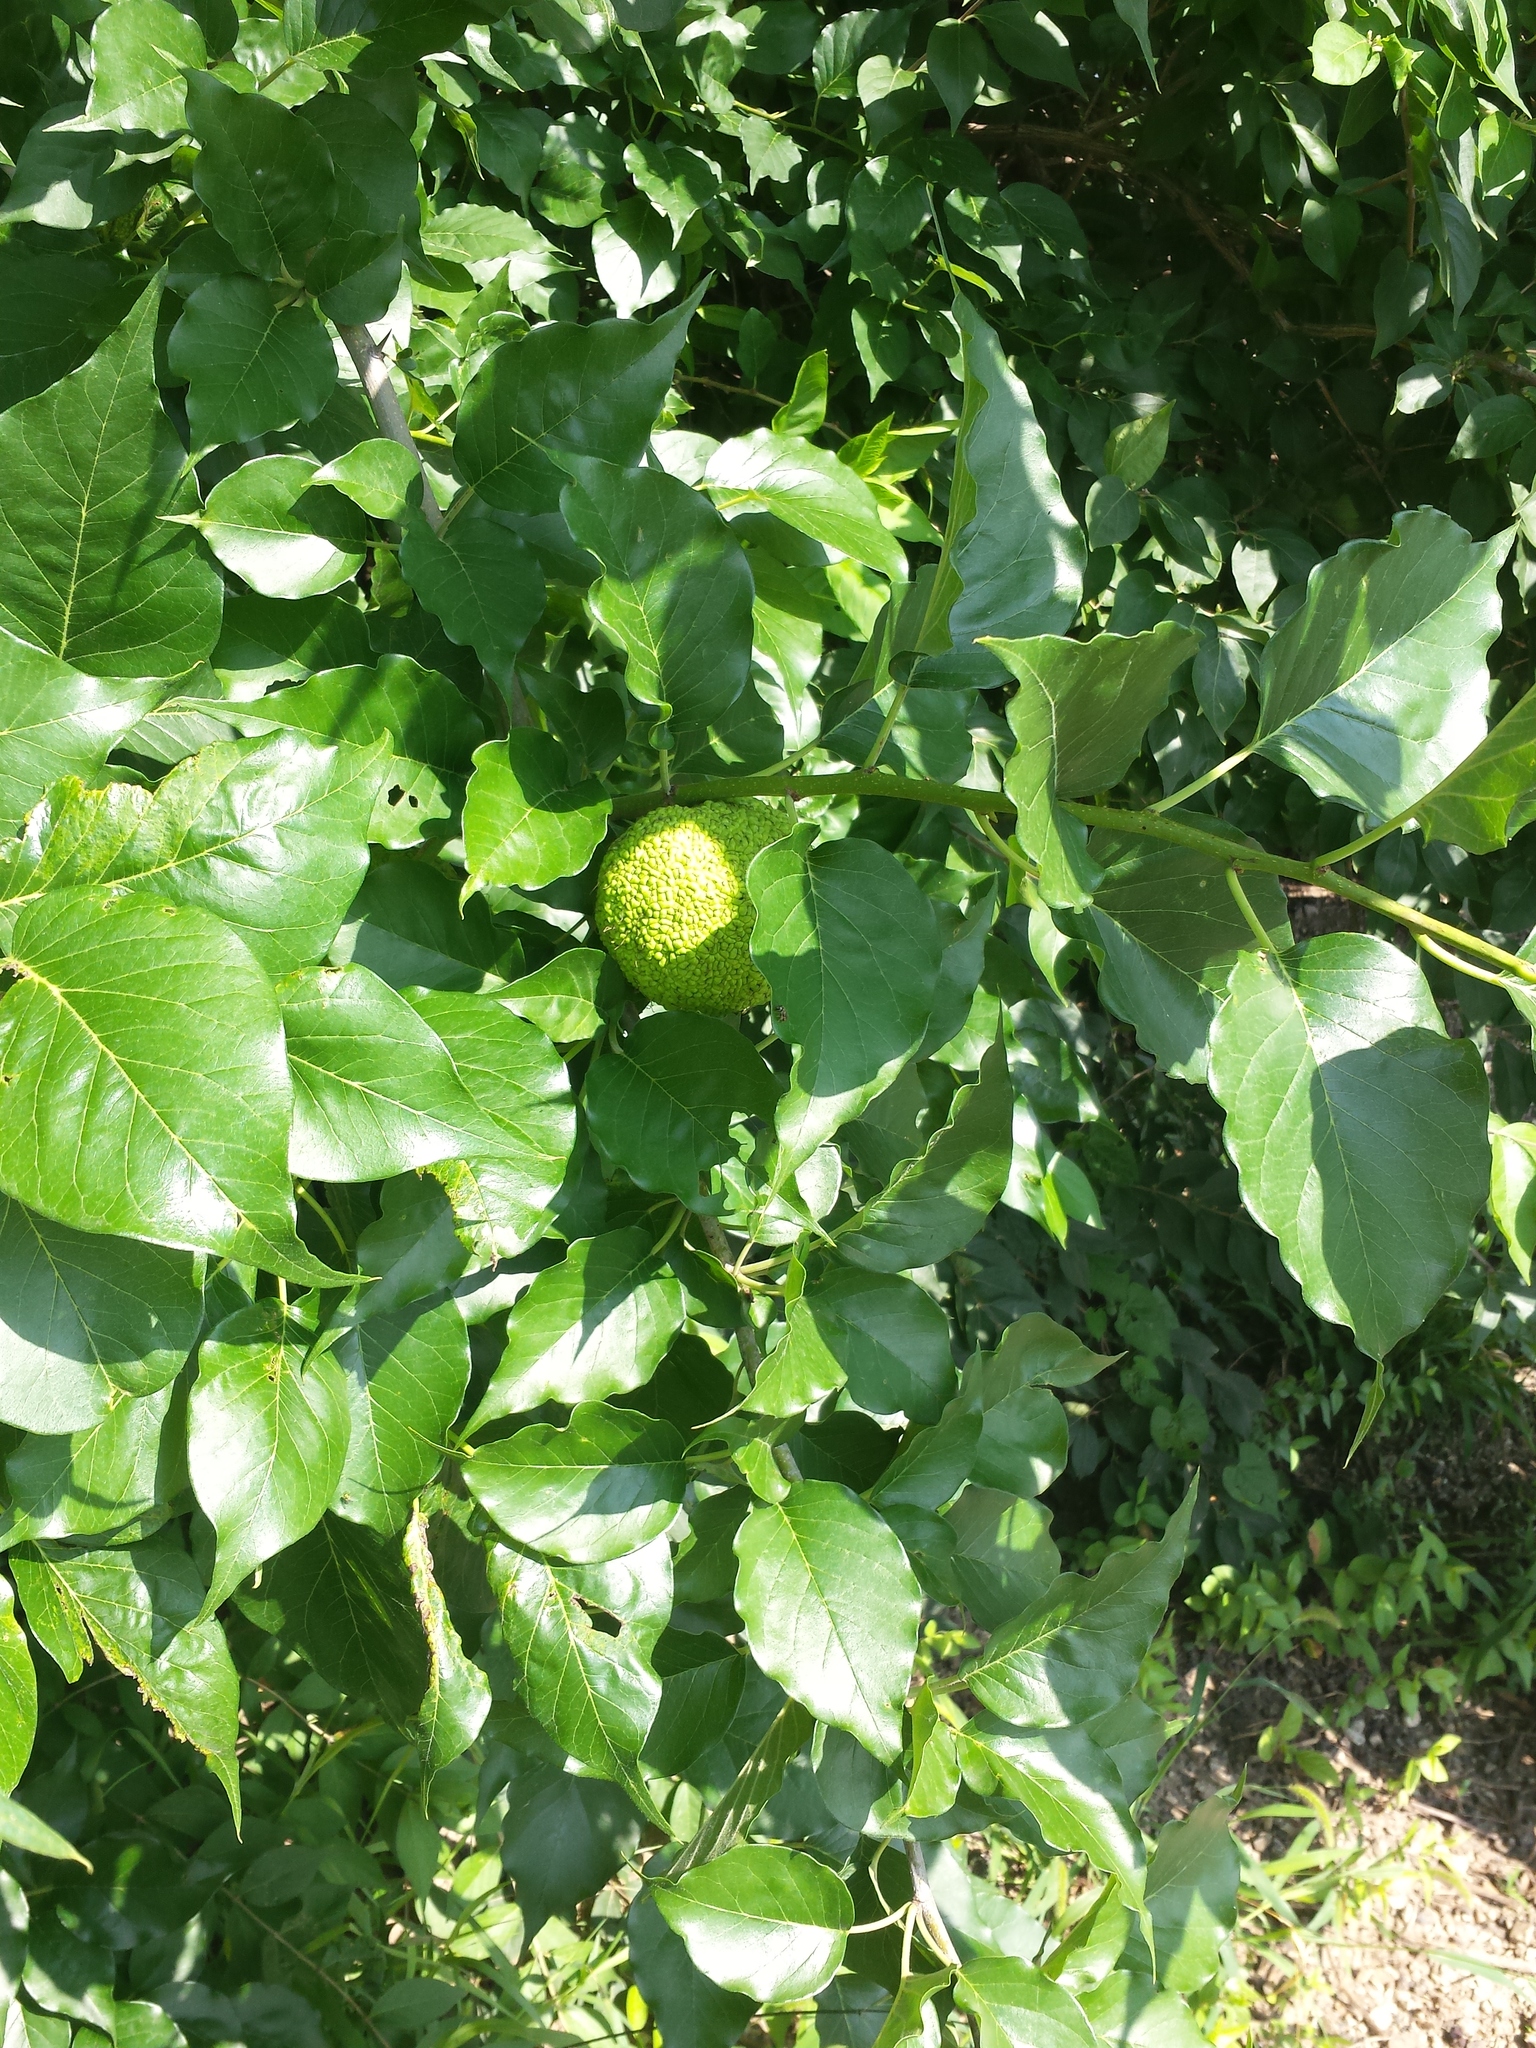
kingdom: Plantae
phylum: Tracheophyta
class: Magnoliopsida
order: Rosales
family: Moraceae
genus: Maclura
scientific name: Maclura pomifera
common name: Osage-orange
